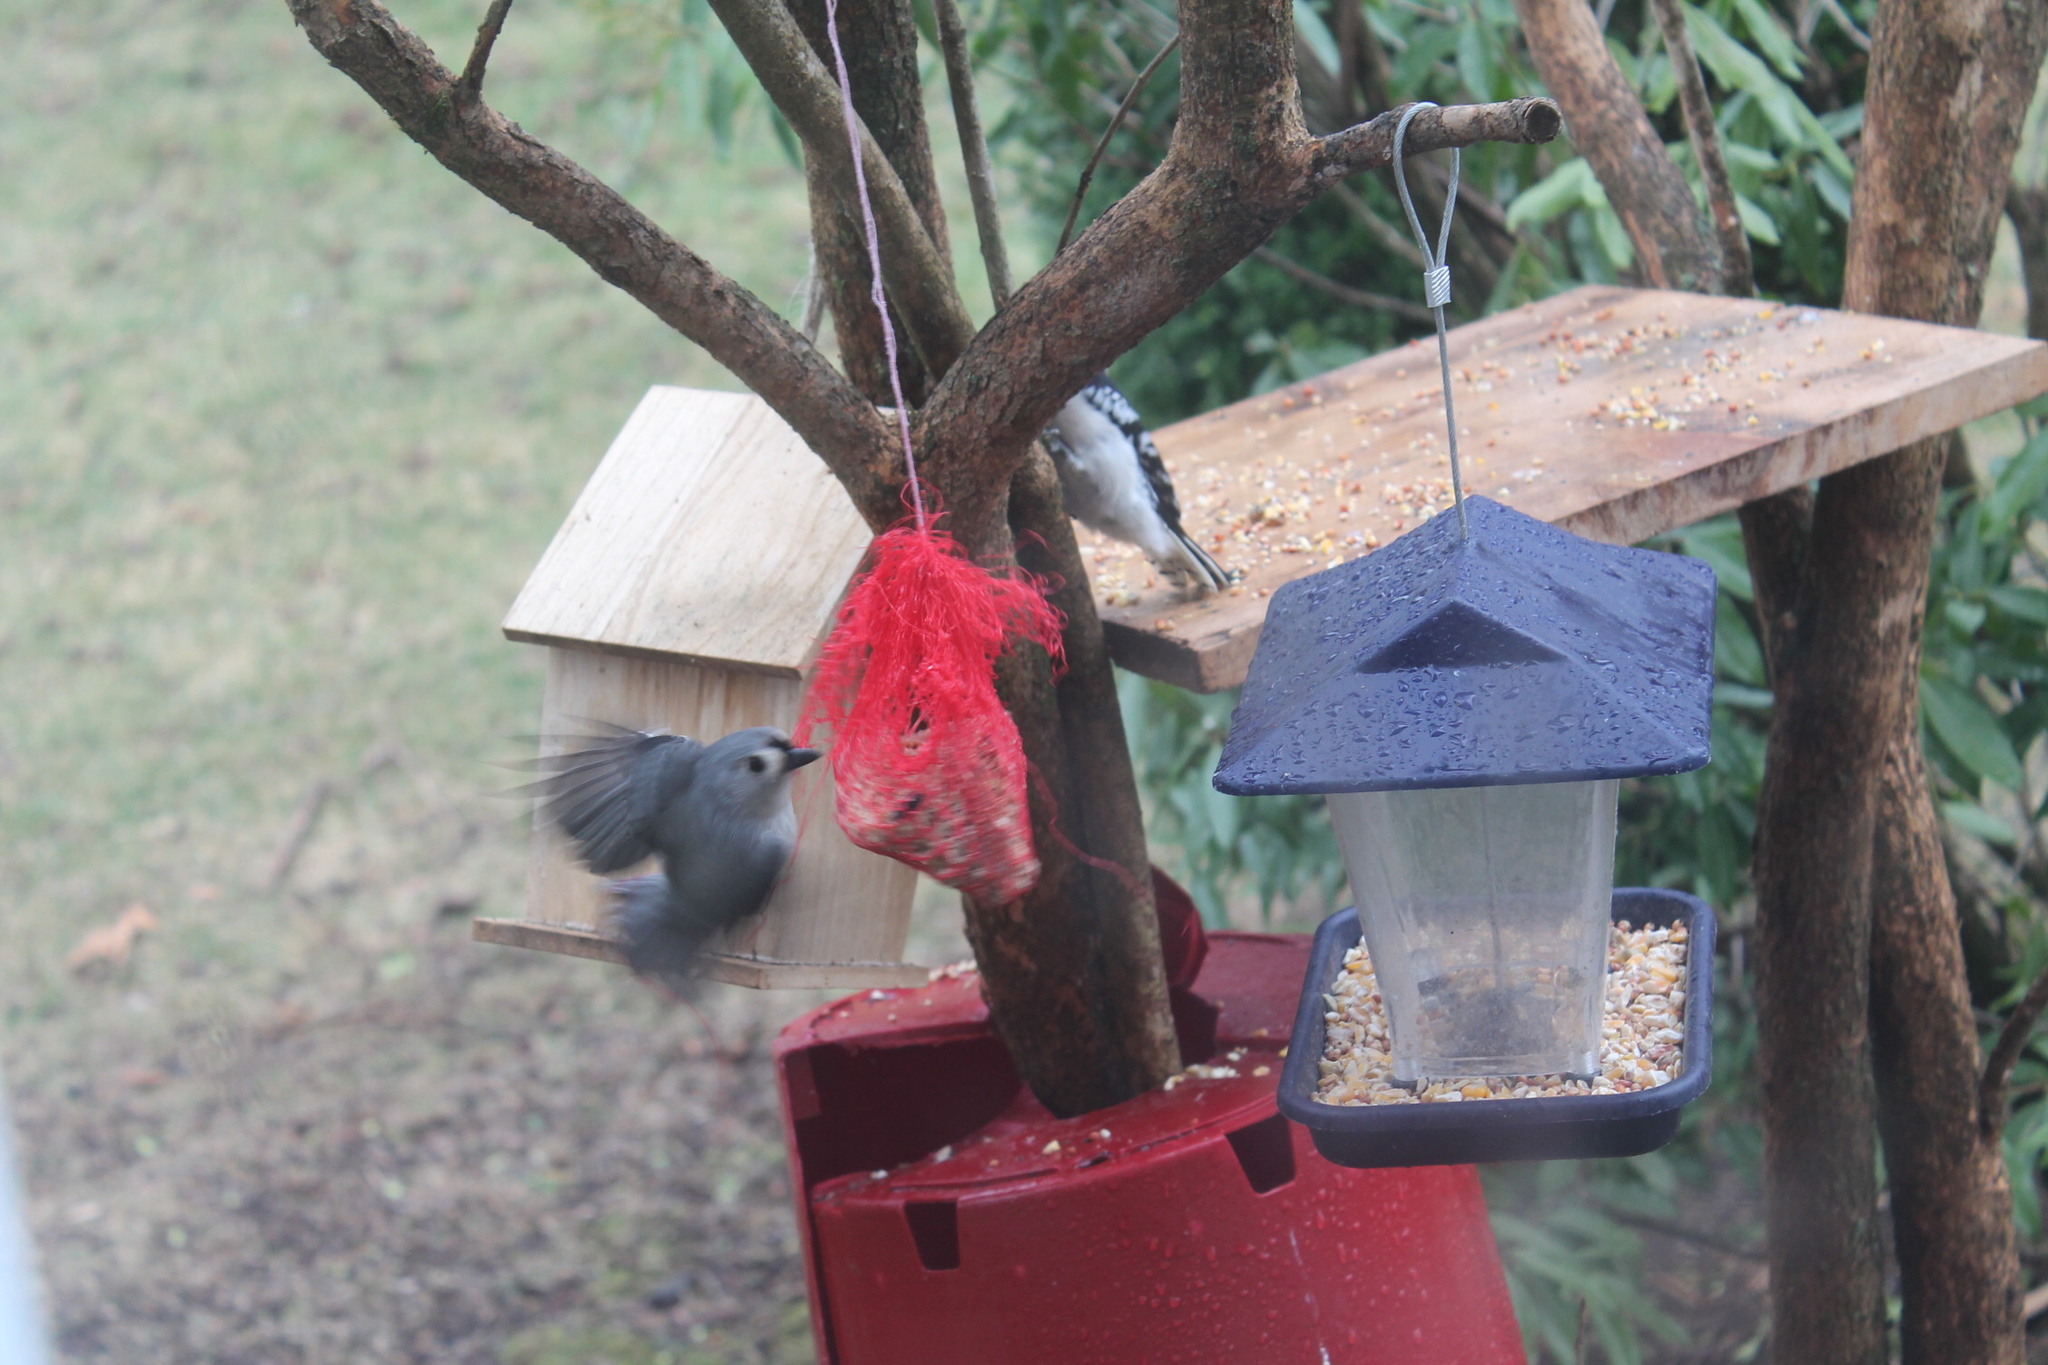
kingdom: Animalia
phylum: Chordata
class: Aves
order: Passeriformes
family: Paridae
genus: Baeolophus
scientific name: Baeolophus bicolor
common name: Tufted titmouse
